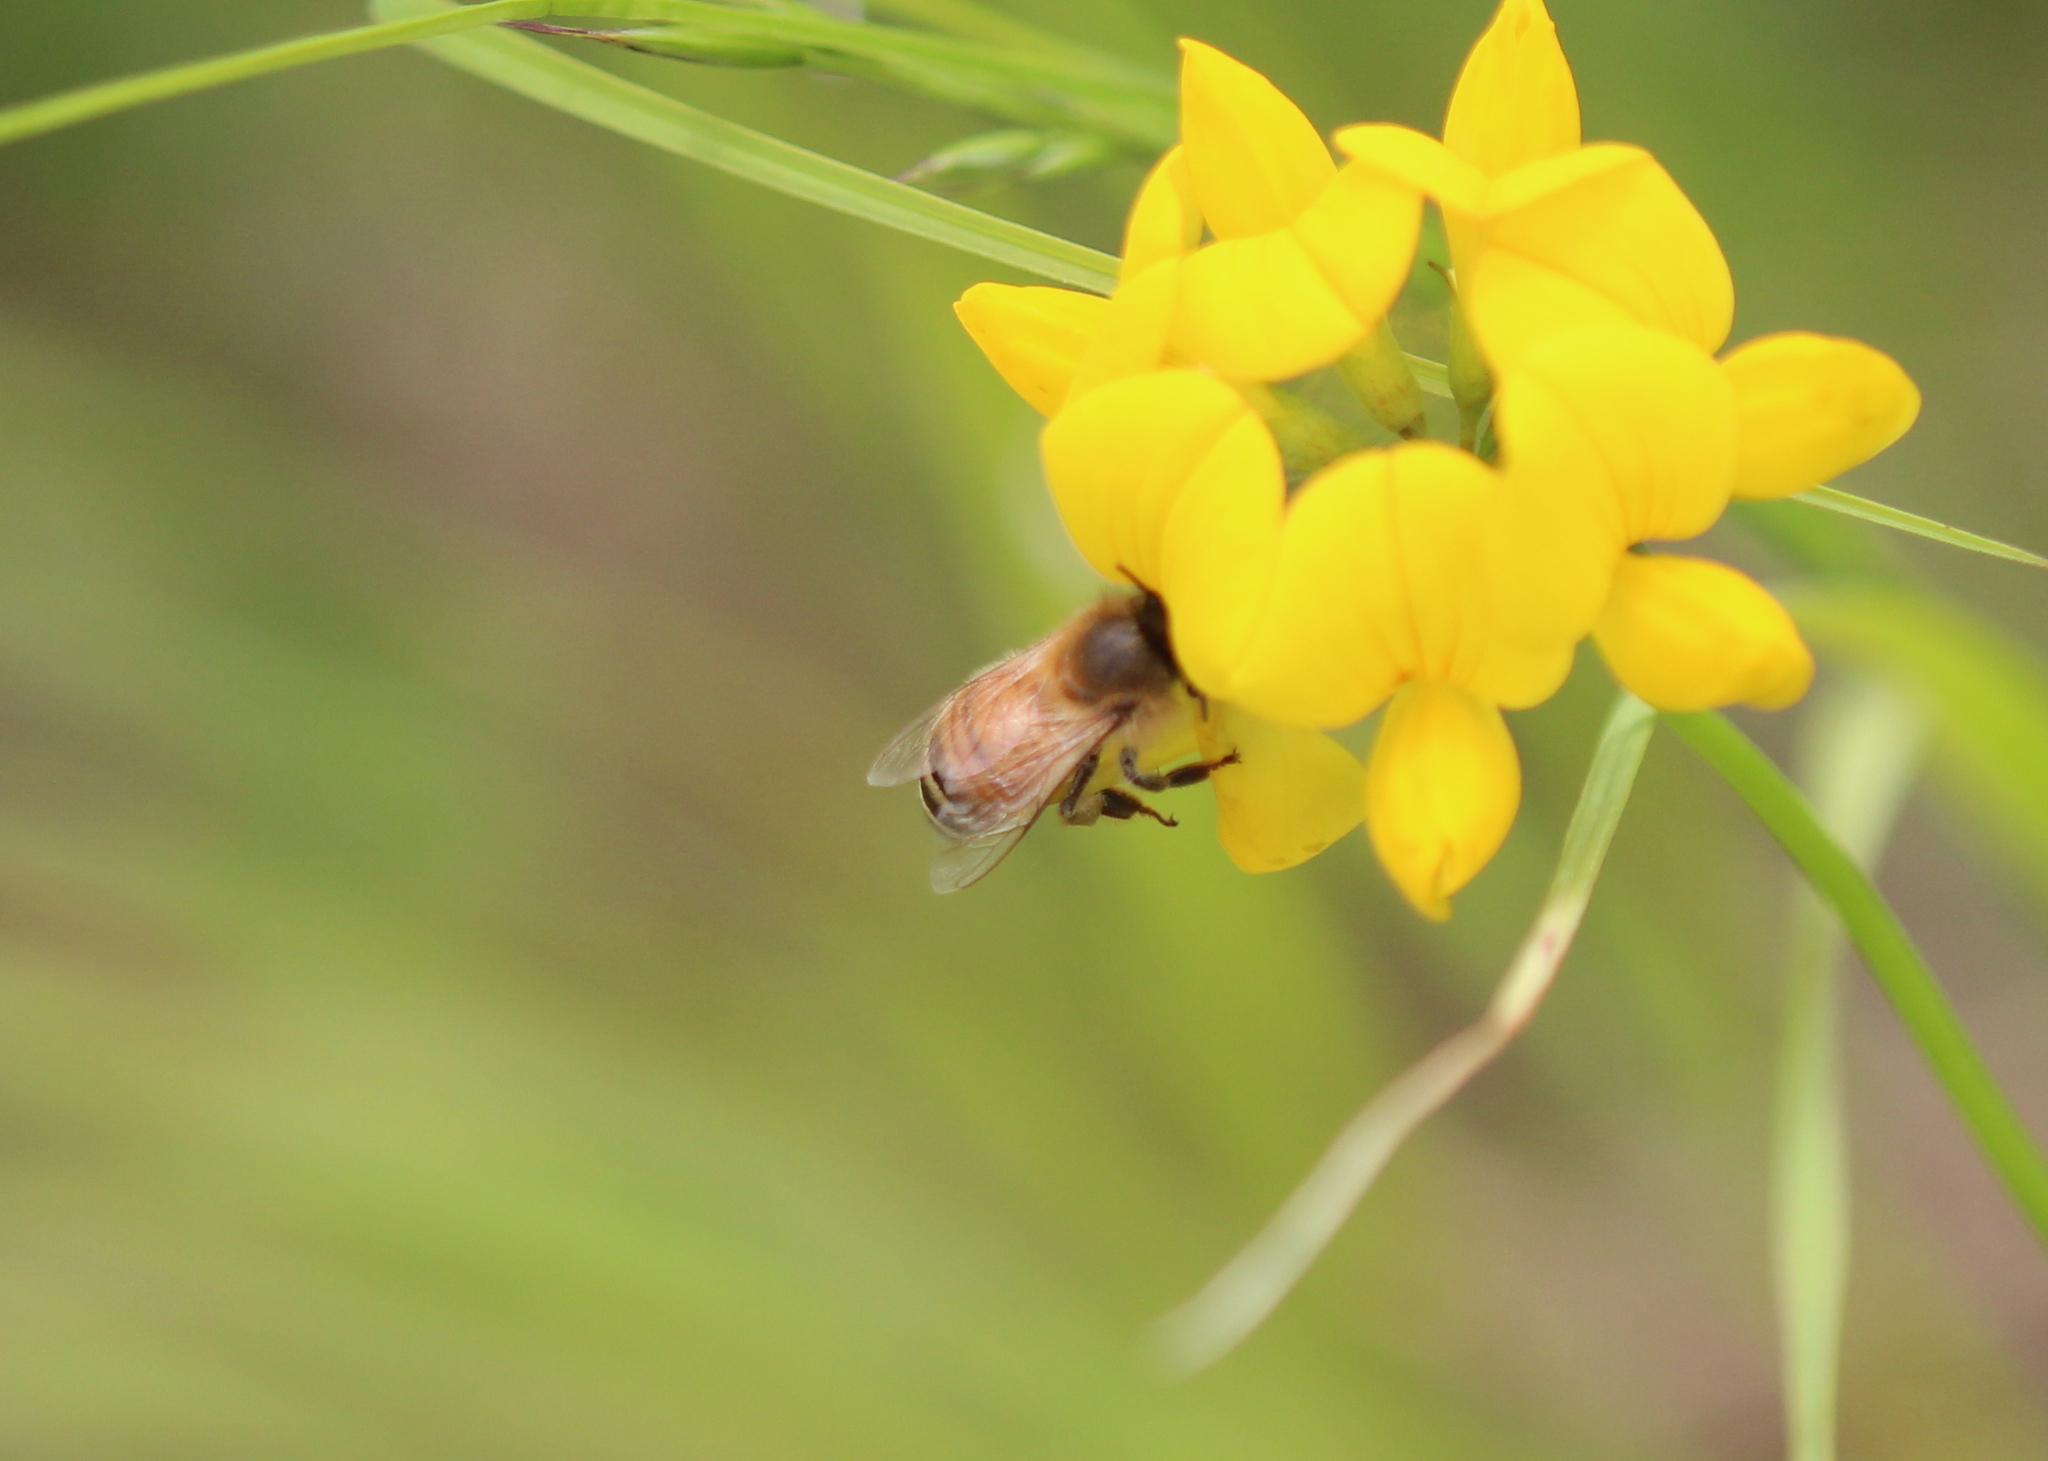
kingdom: Animalia
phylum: Arthropoda
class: Insecta
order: Hymenoptera
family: Apidae
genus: Apis
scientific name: Apis mellifera
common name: Honey bee
